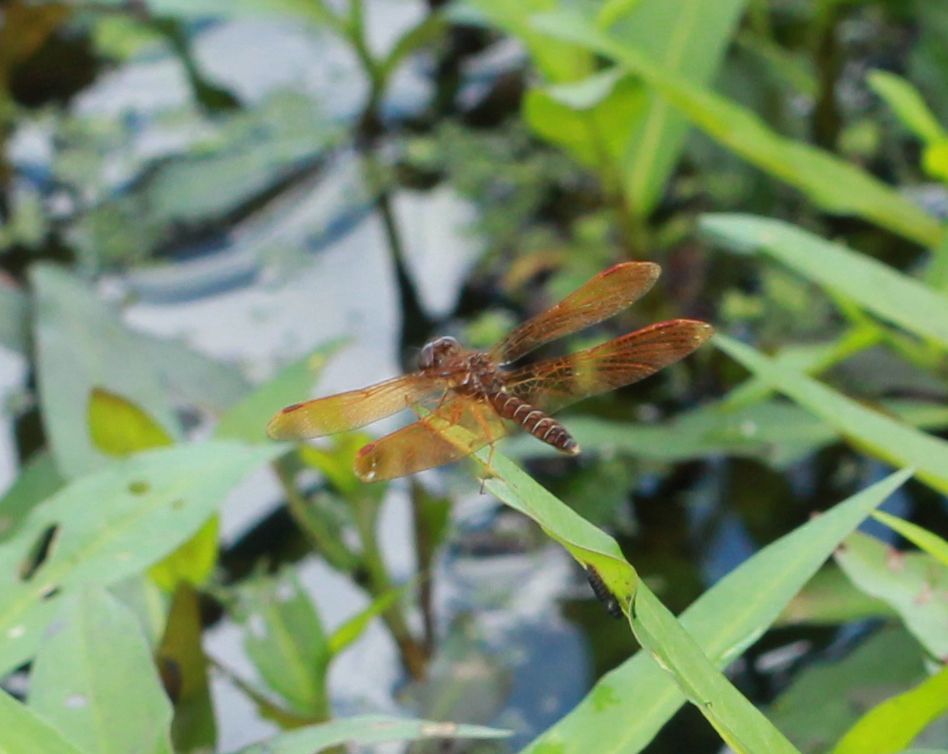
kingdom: Animalia
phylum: Arthropoda
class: Insecta
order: Odonata
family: Libellulidae
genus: Perithemis
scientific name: Perithemis tenera
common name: Eastern amberwing
